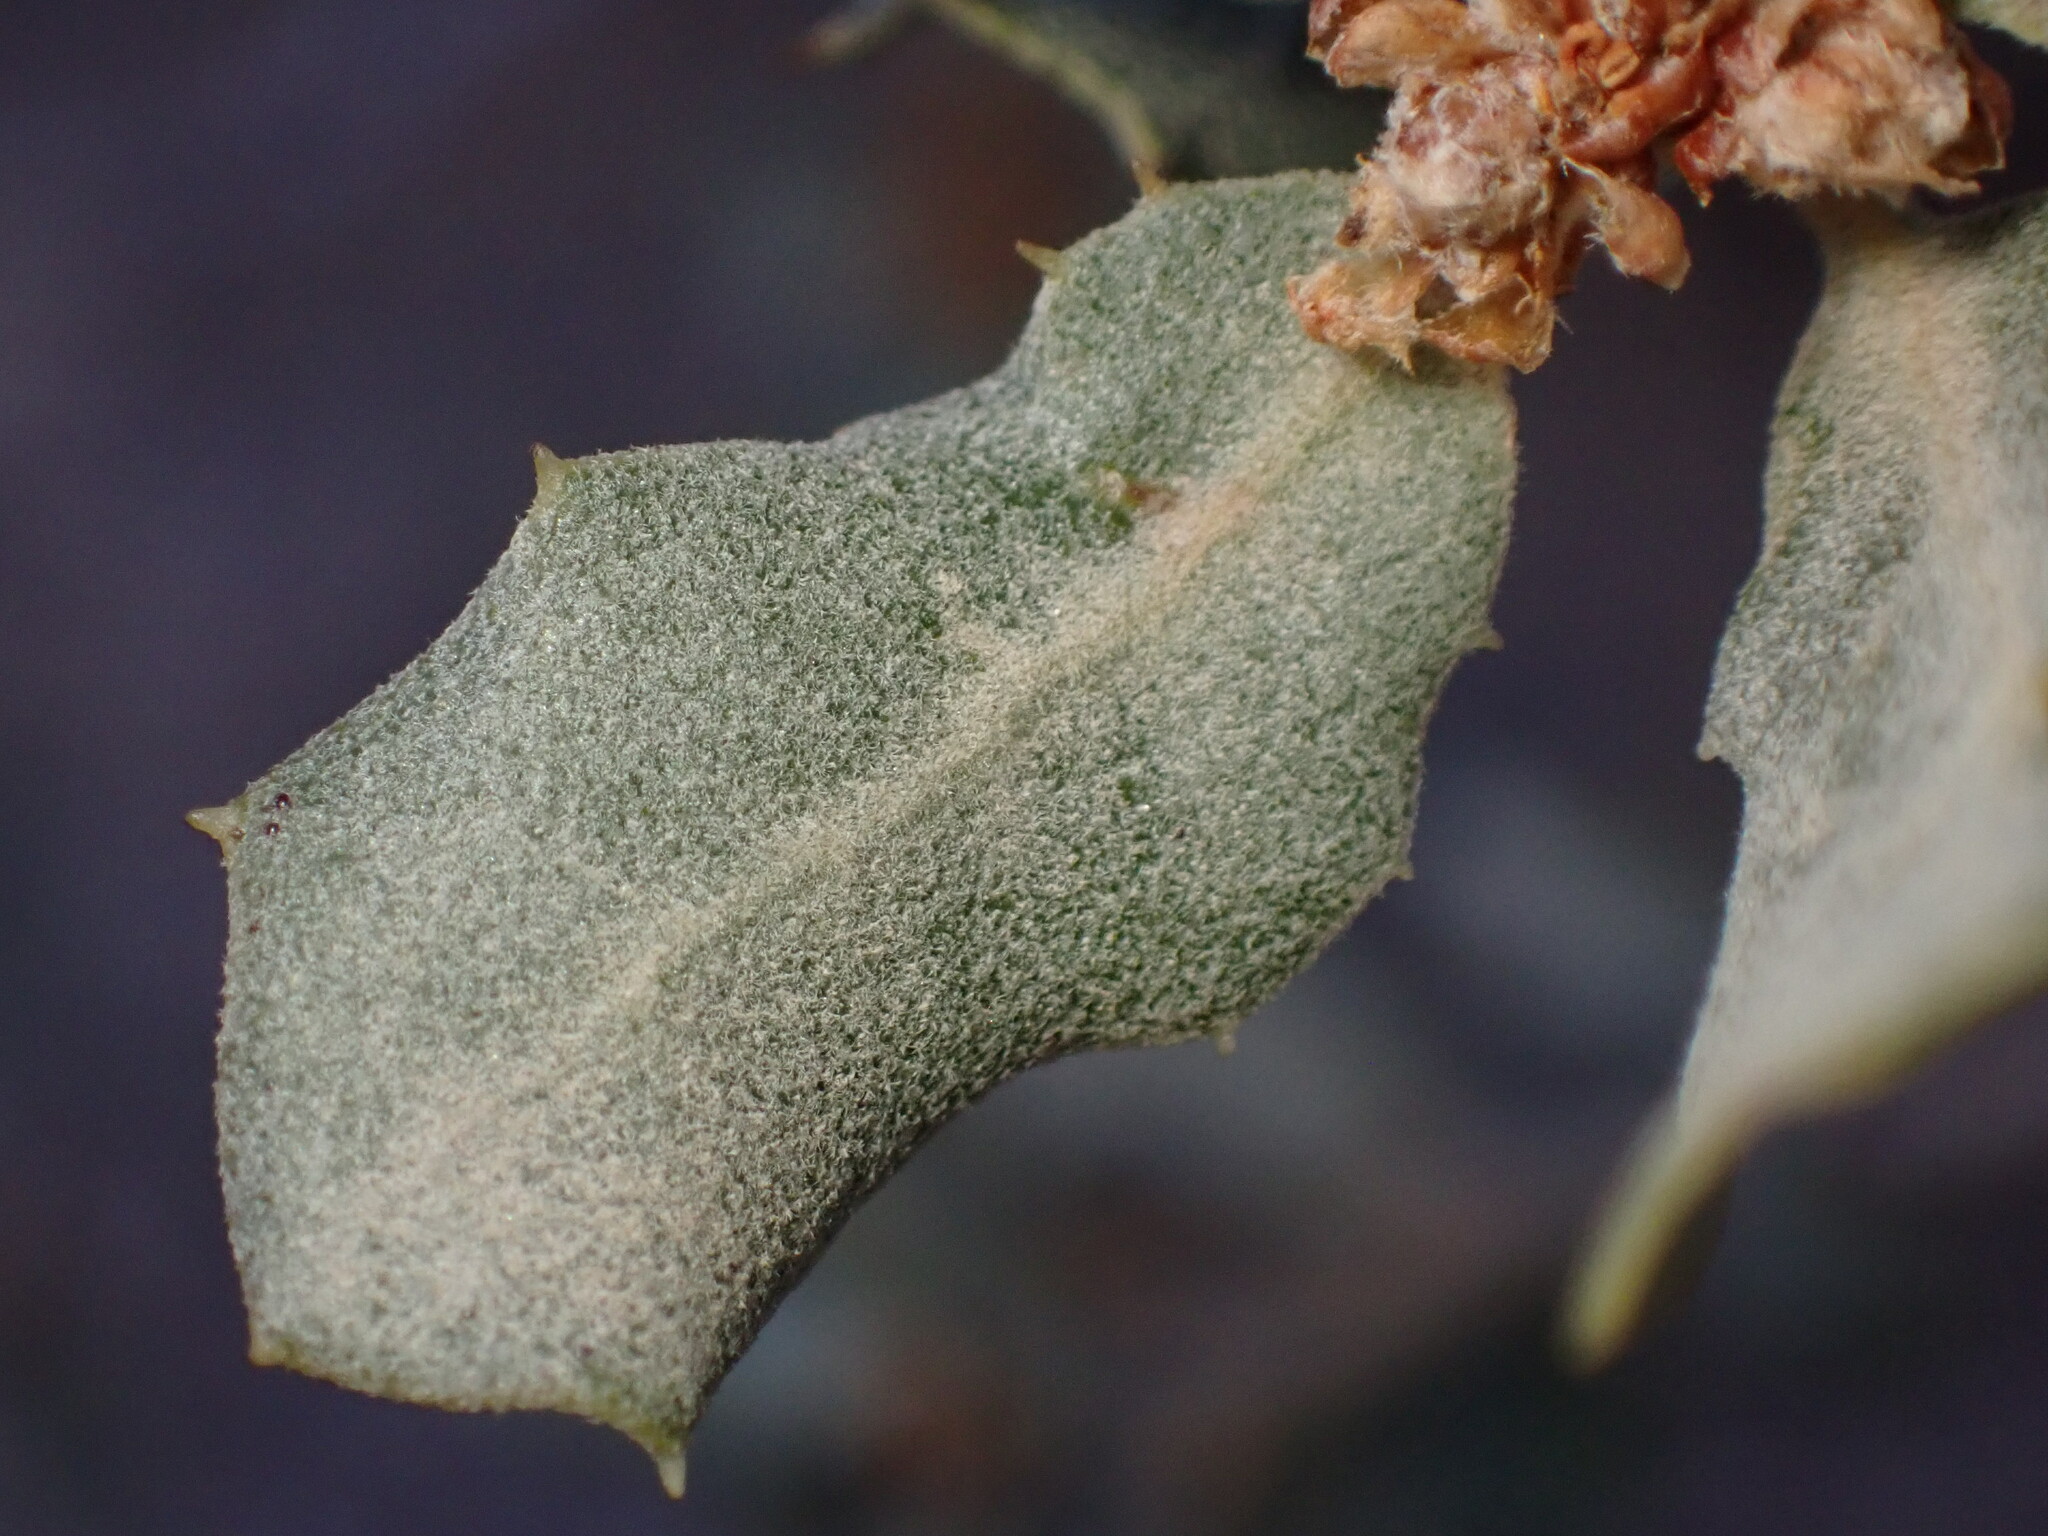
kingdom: Plantae
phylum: Tracheophyta
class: Magnoliopsida
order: Fagales
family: Fagaceae
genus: Quercus
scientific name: Quercus cornelius-mulleri
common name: Muller oak
